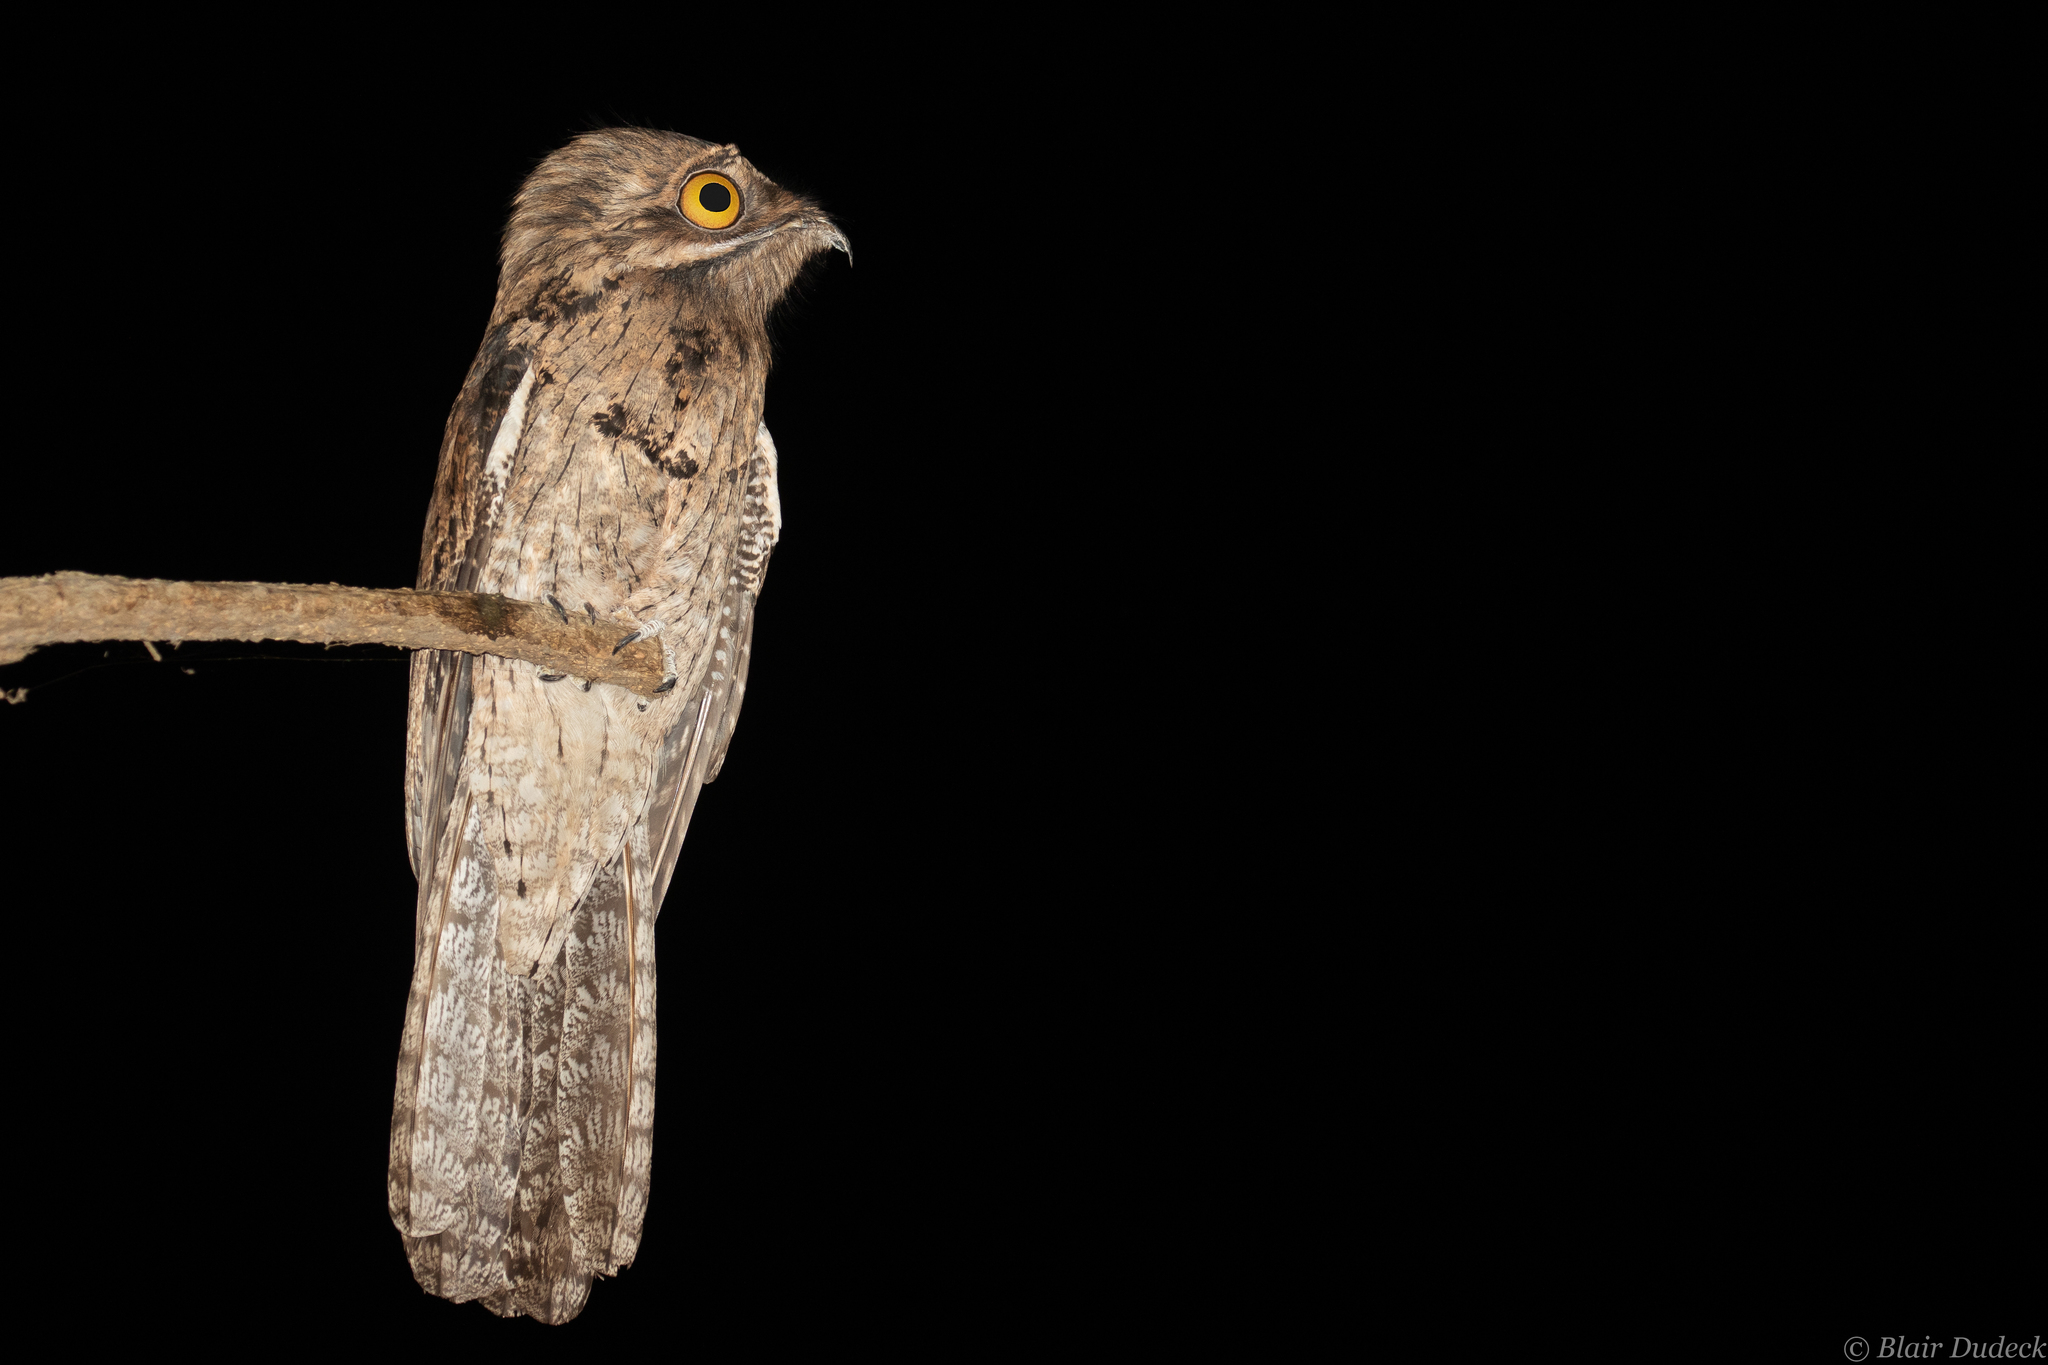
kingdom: Animalia
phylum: Chordata
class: Aves
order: Nyctibiiformes
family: Nyctibiidae
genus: Nyctibius
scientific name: Nyctibius jamaicensis
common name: Northern potoo
